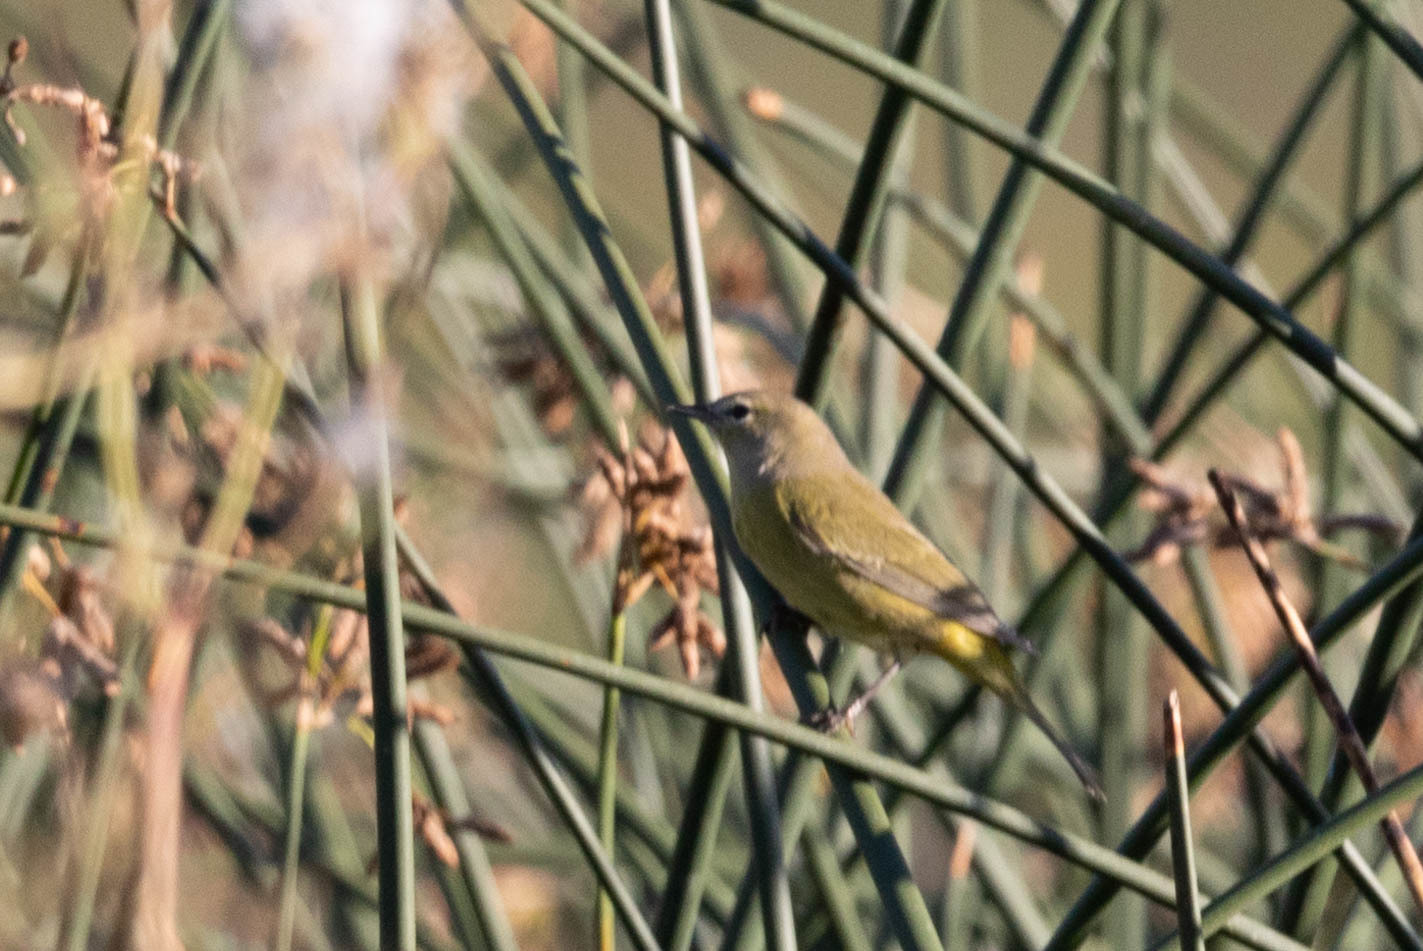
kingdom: Animalia
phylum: Chordata
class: Aves
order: Passeriformes
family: Parulidae
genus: Leiothlypis
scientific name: Leiothlypis celata
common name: Orange-crowned warbler
